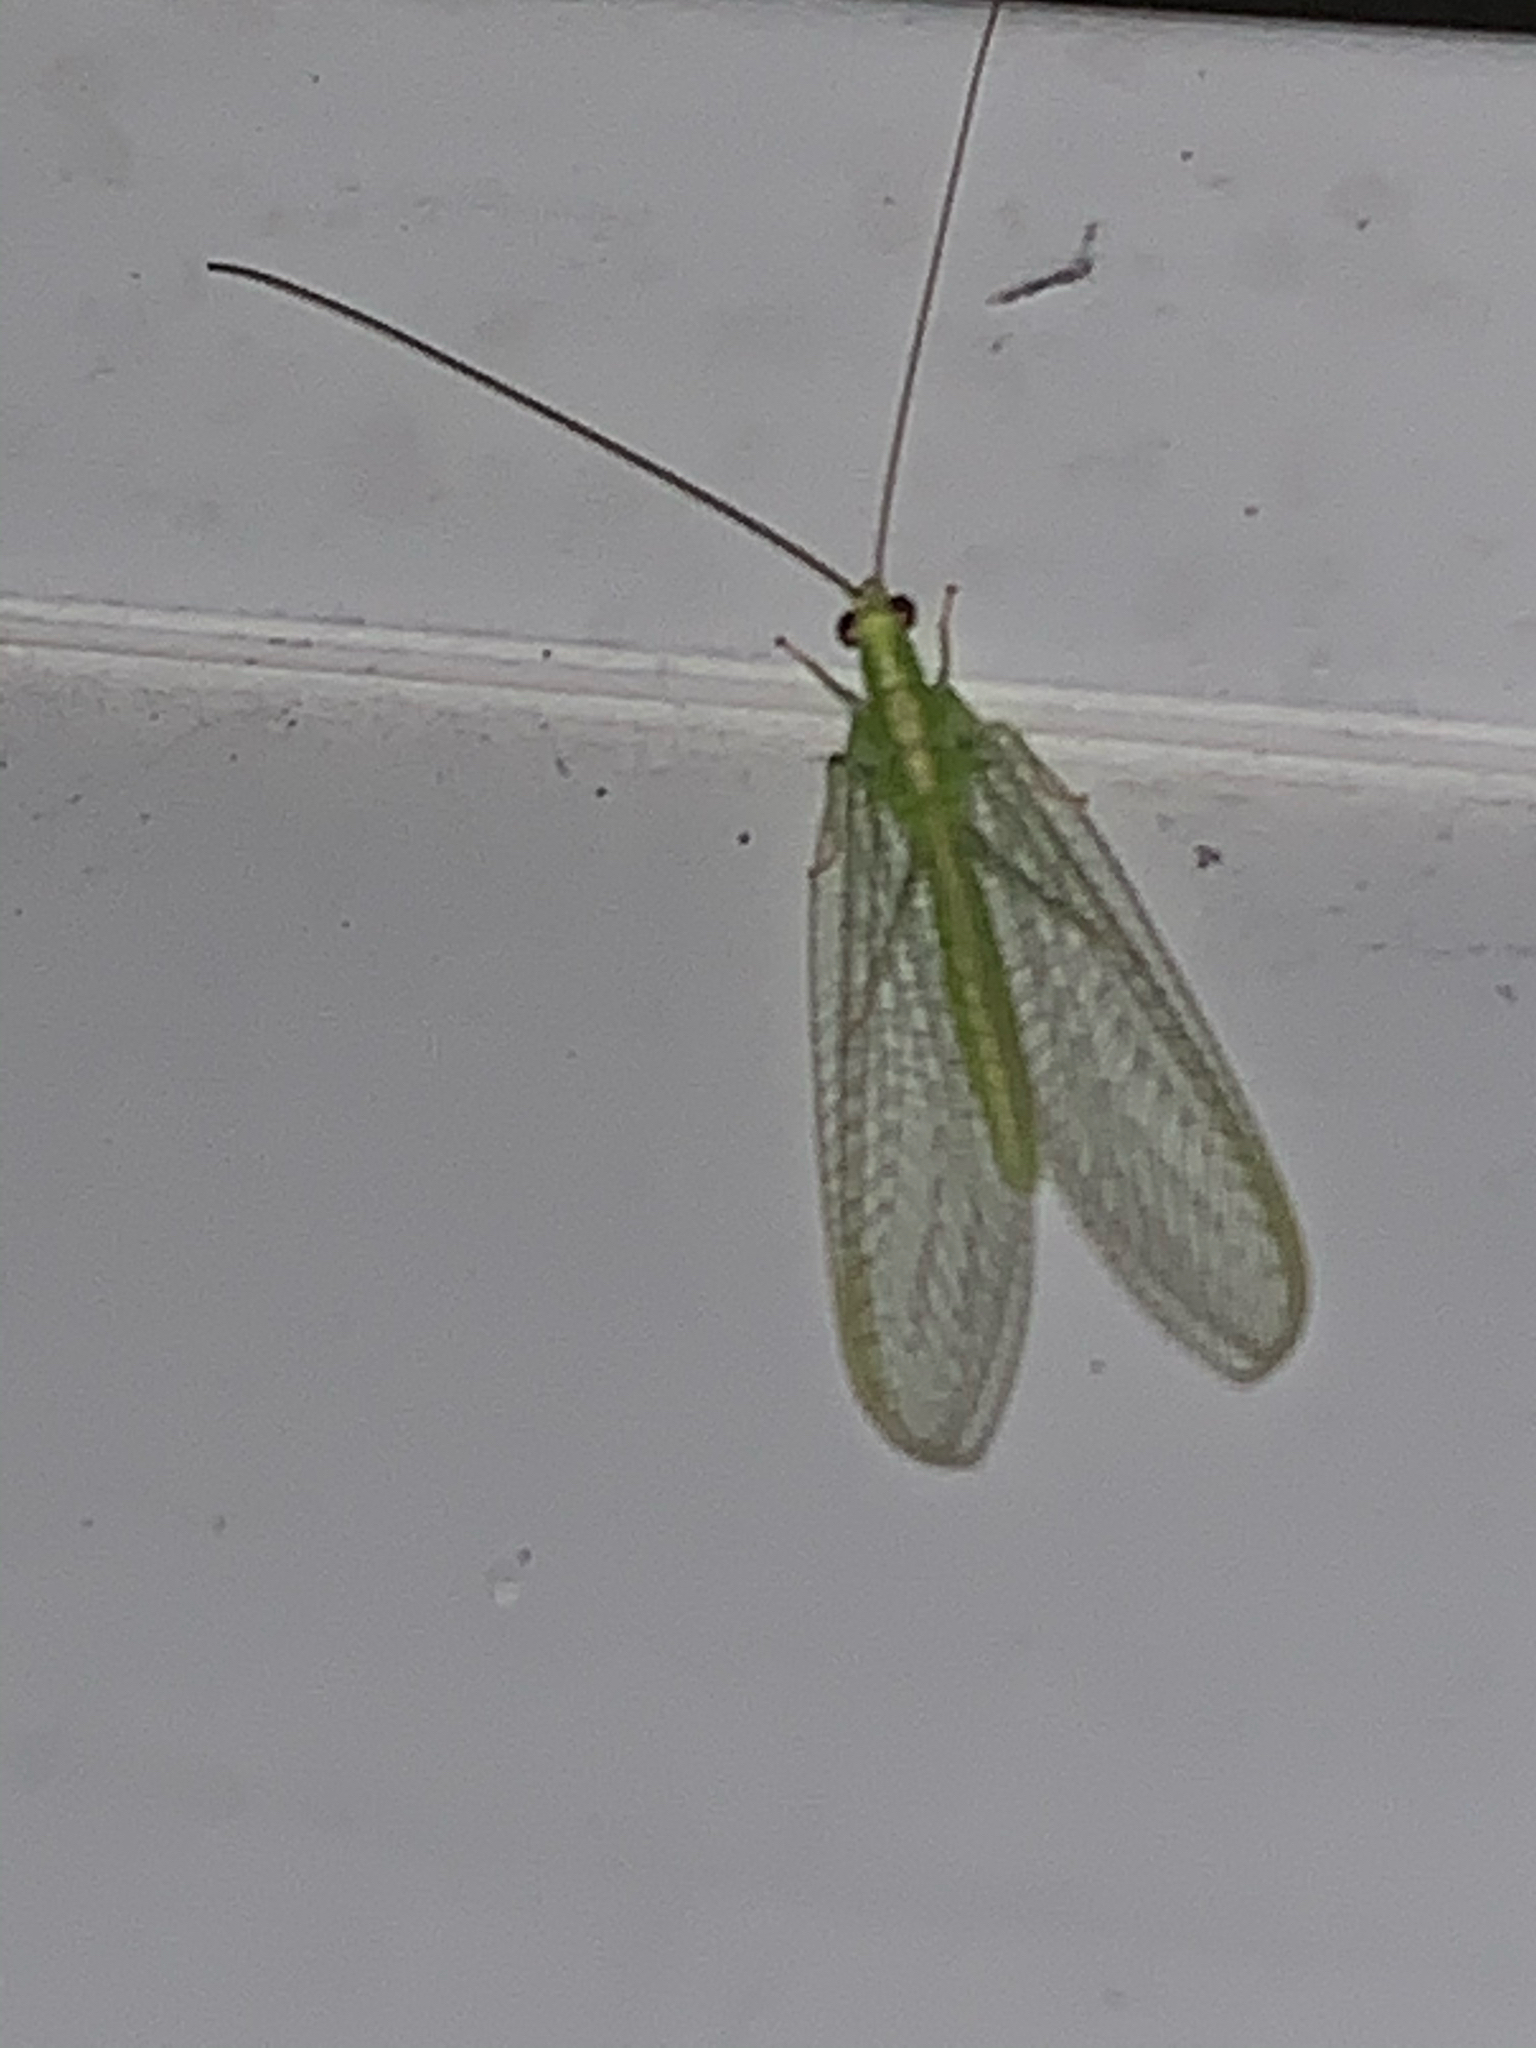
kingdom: Animalia
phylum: Arthropoda
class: Insecta
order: Neuroptera
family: Chrysopidae
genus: Chrysoperla
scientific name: Chrysoperla
